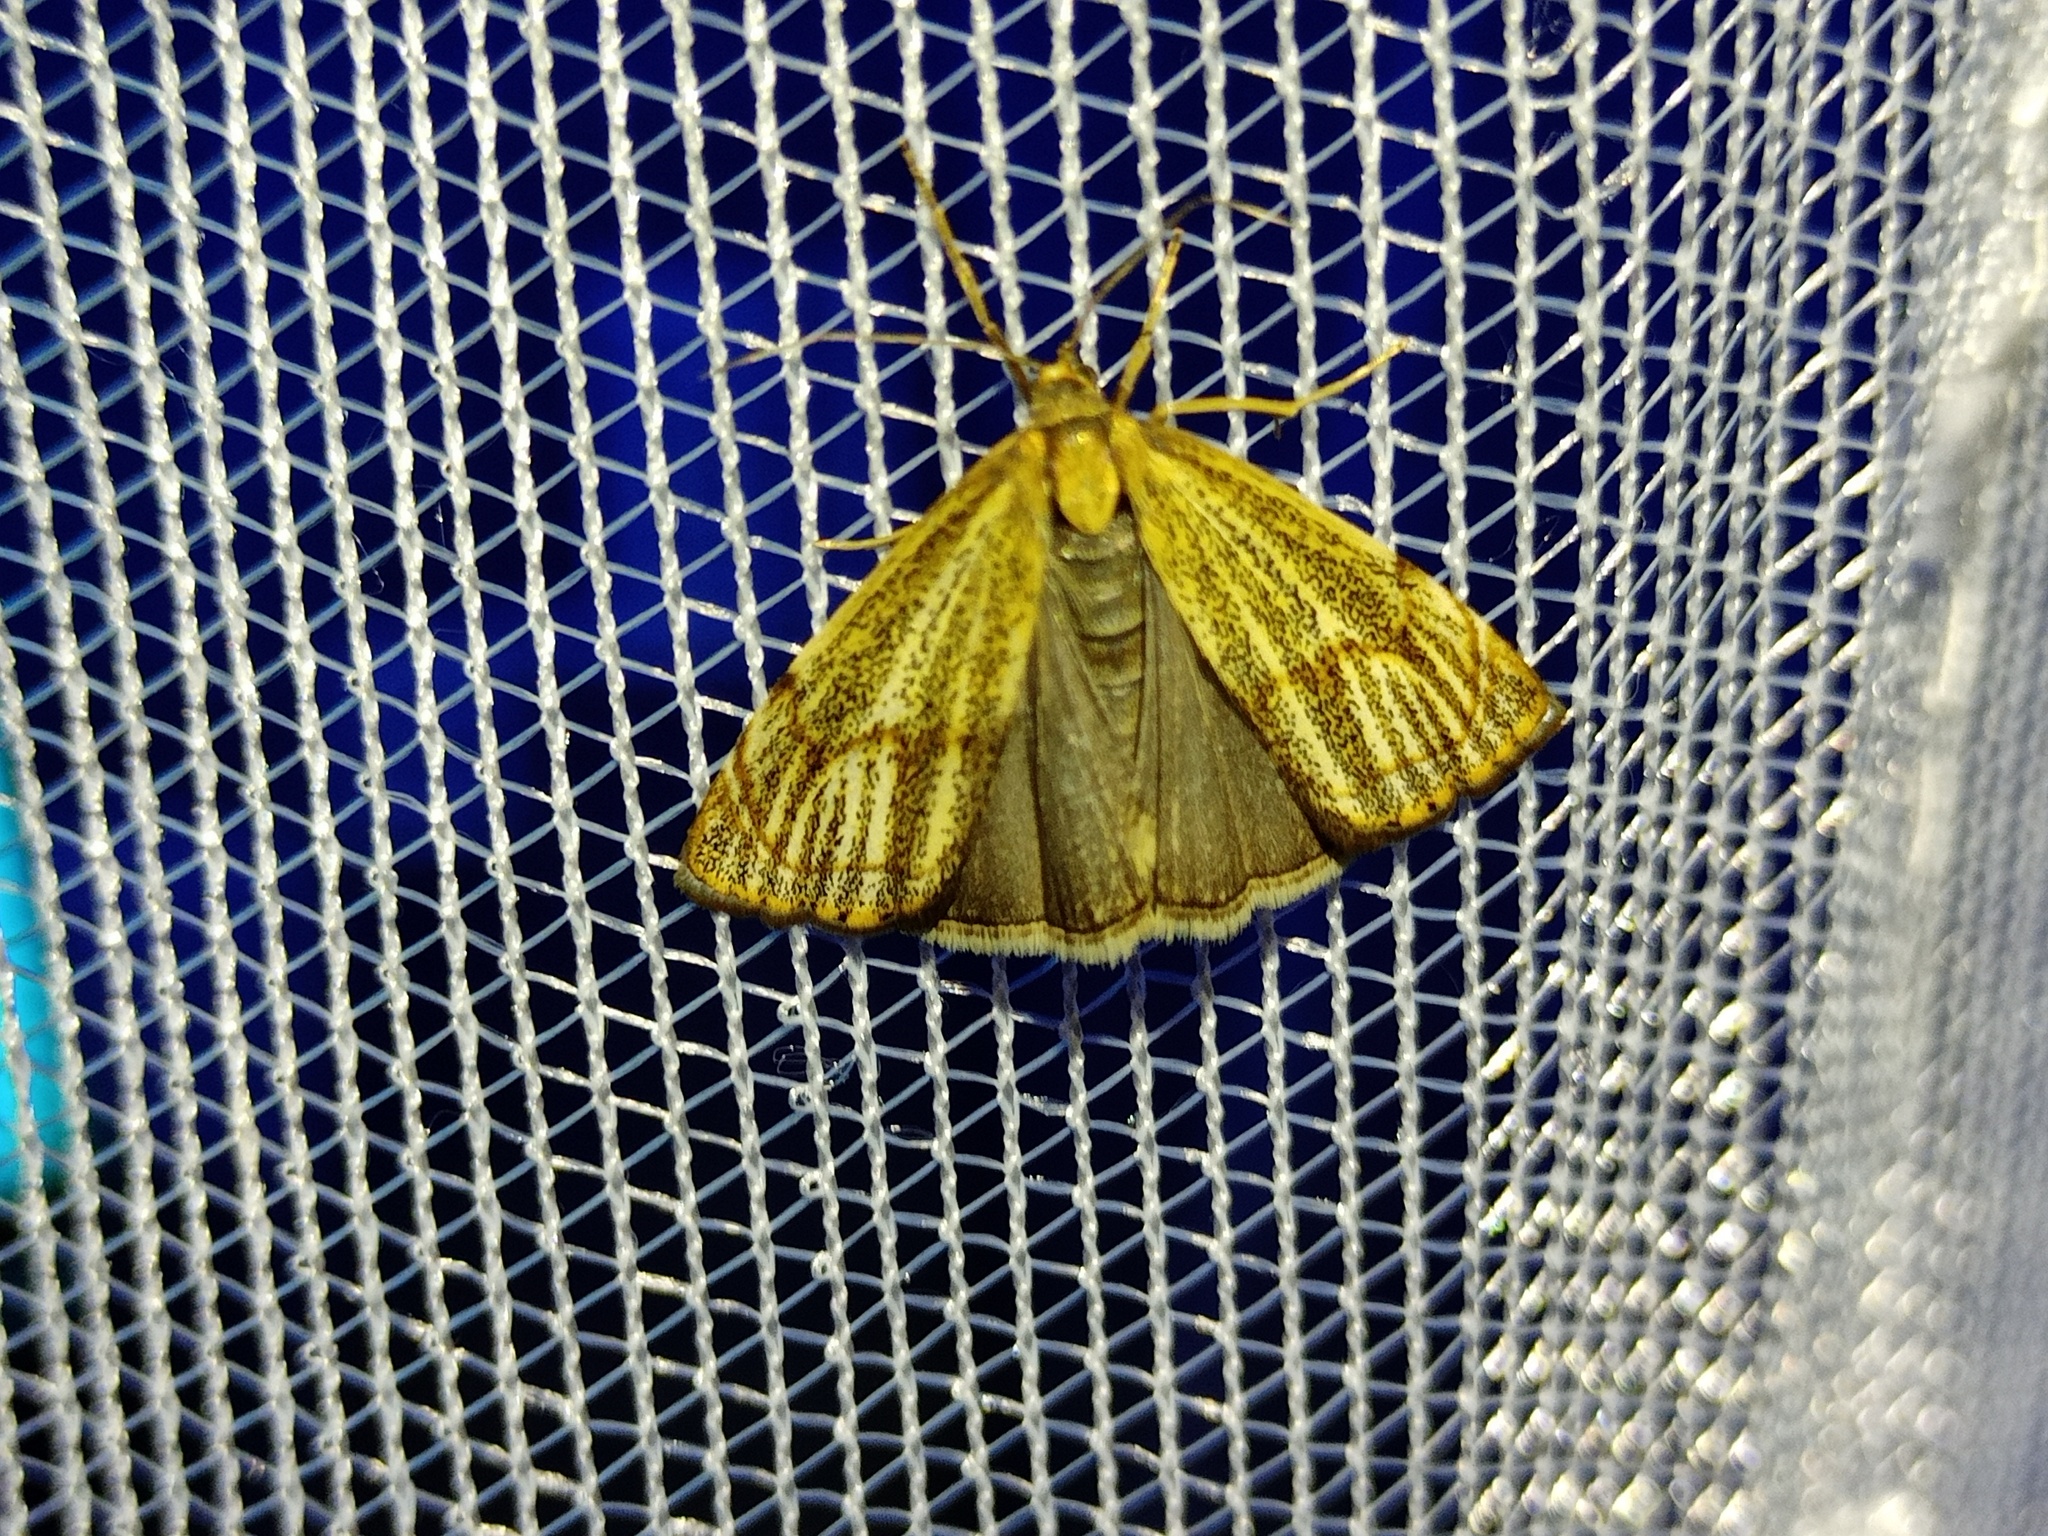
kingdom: Animalia
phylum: Arthropoda
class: Insecta
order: Lepidoptera
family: Crambidae
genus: Thisanotia
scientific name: Thisanotia chrysonuchella
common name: Powdered grass-veneer
